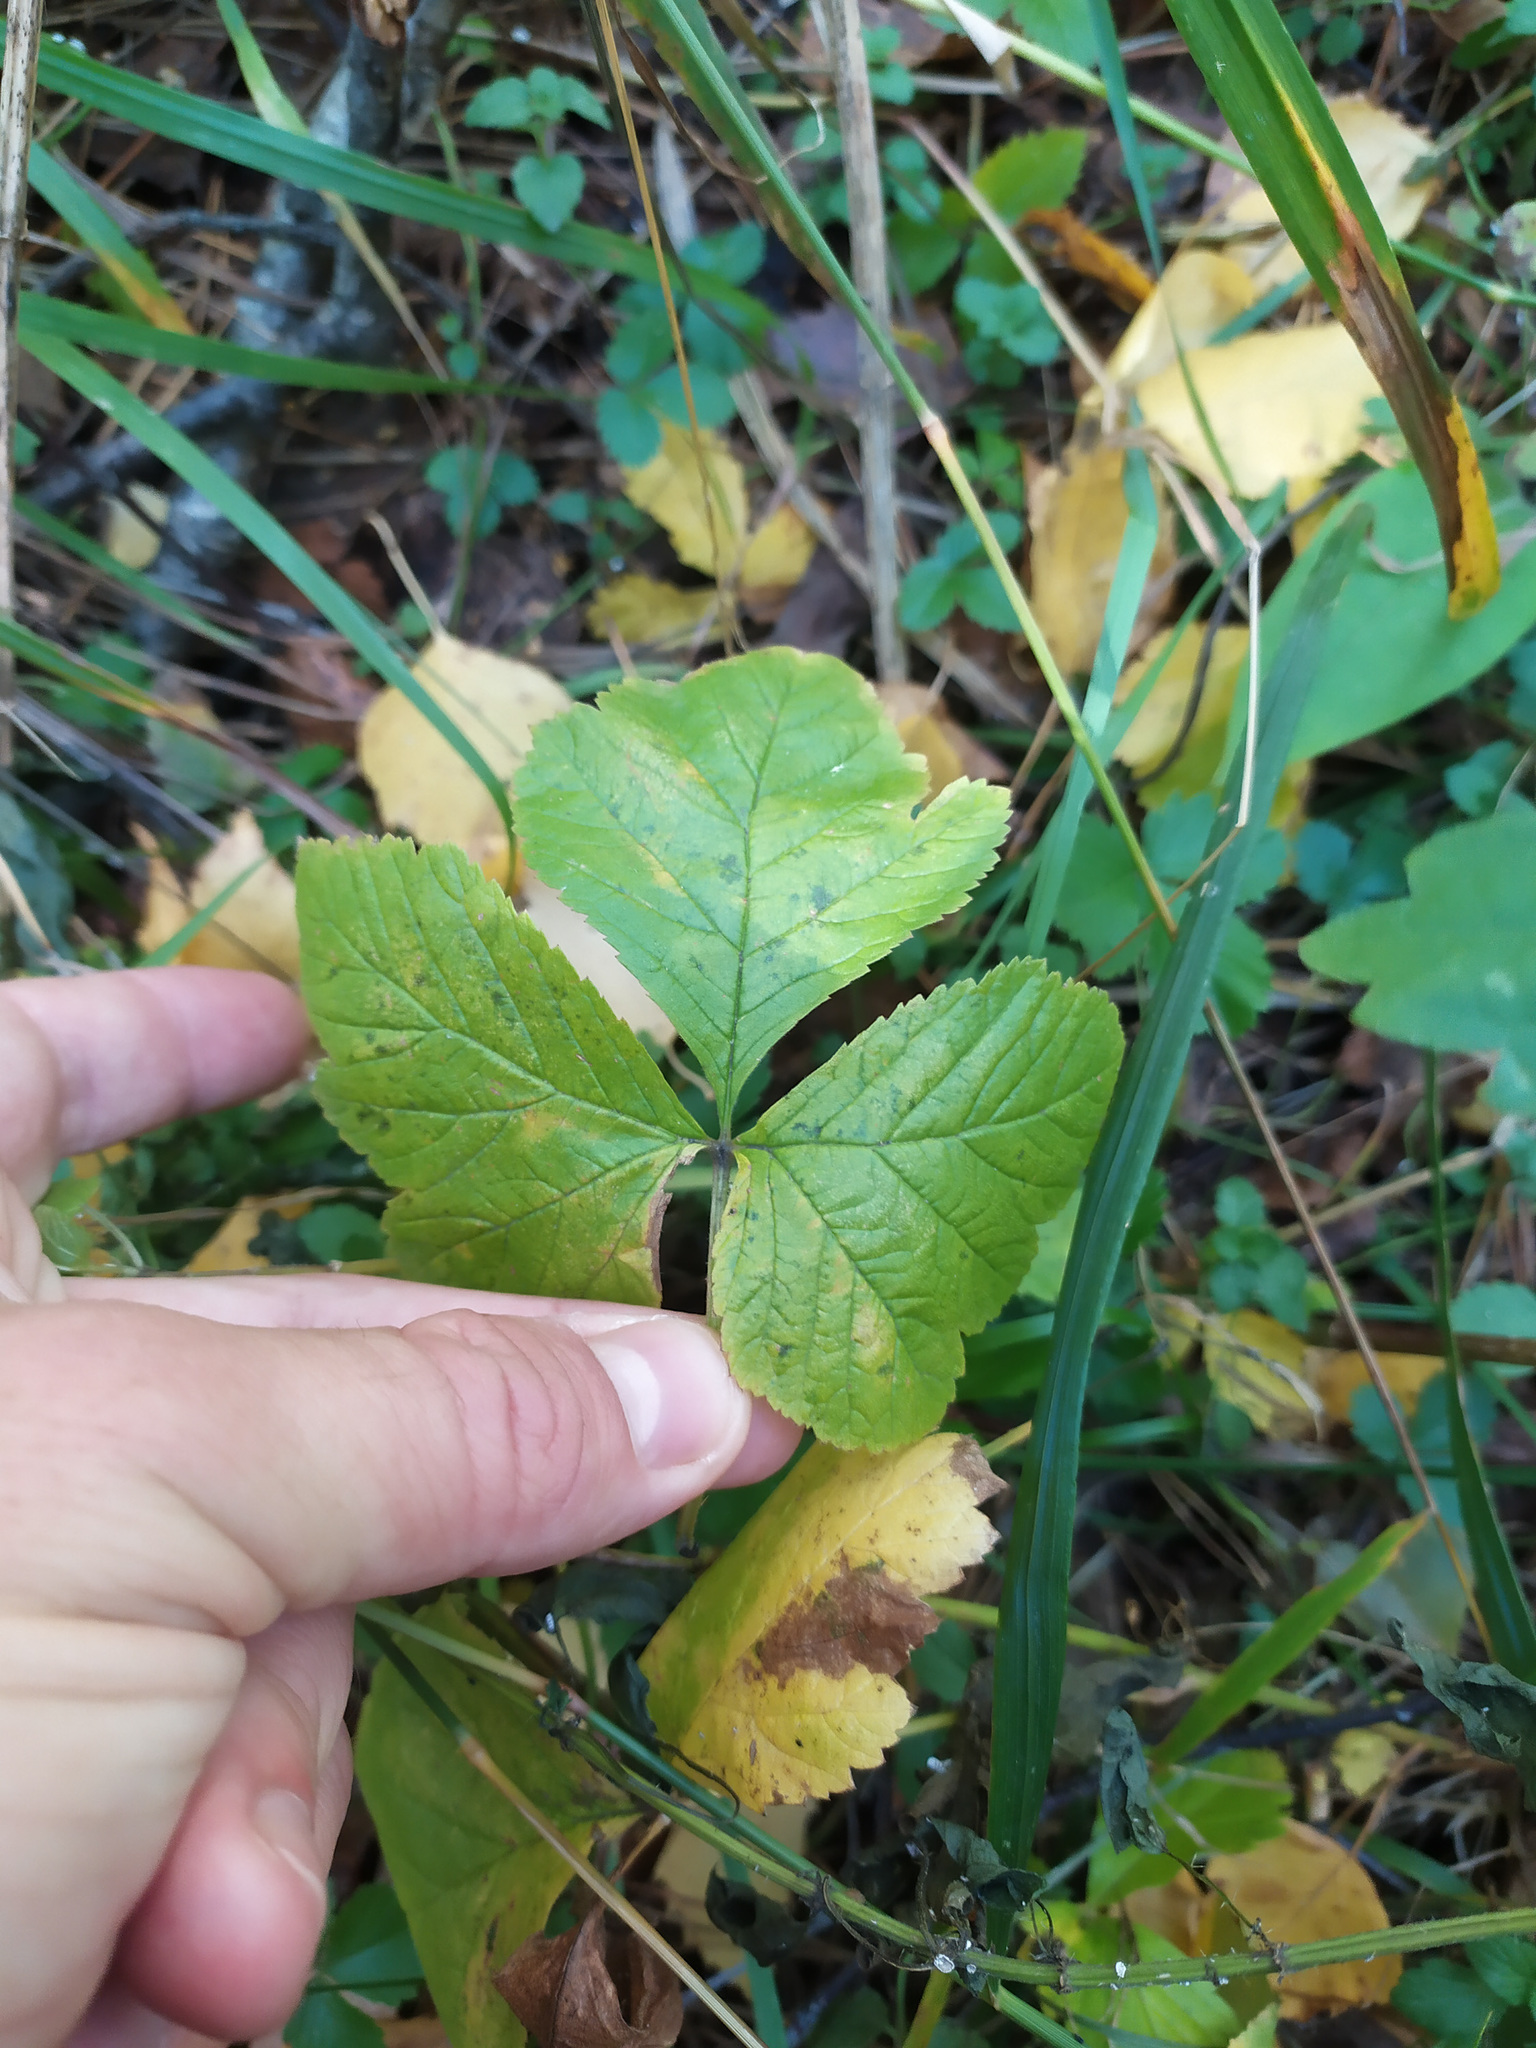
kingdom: Plantae
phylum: Tracheophyta
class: Magnoliopsida
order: Rosales
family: Rosaceae
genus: Rubus
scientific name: Rubus saxatilis
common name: Stone bramble
